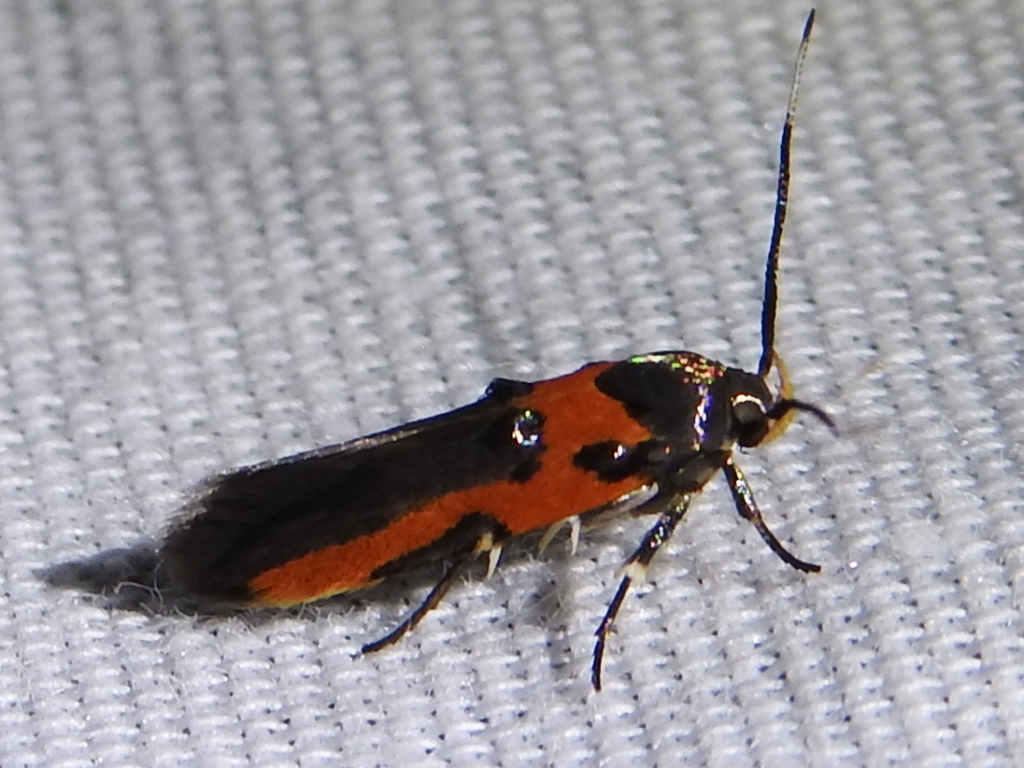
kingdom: Animalia
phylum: Arthropoda
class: Insecta
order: Lepidoptera
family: Cosmopterigidae
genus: Euclemensia
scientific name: Euclemensia bassettella
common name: Kermes scale moth
